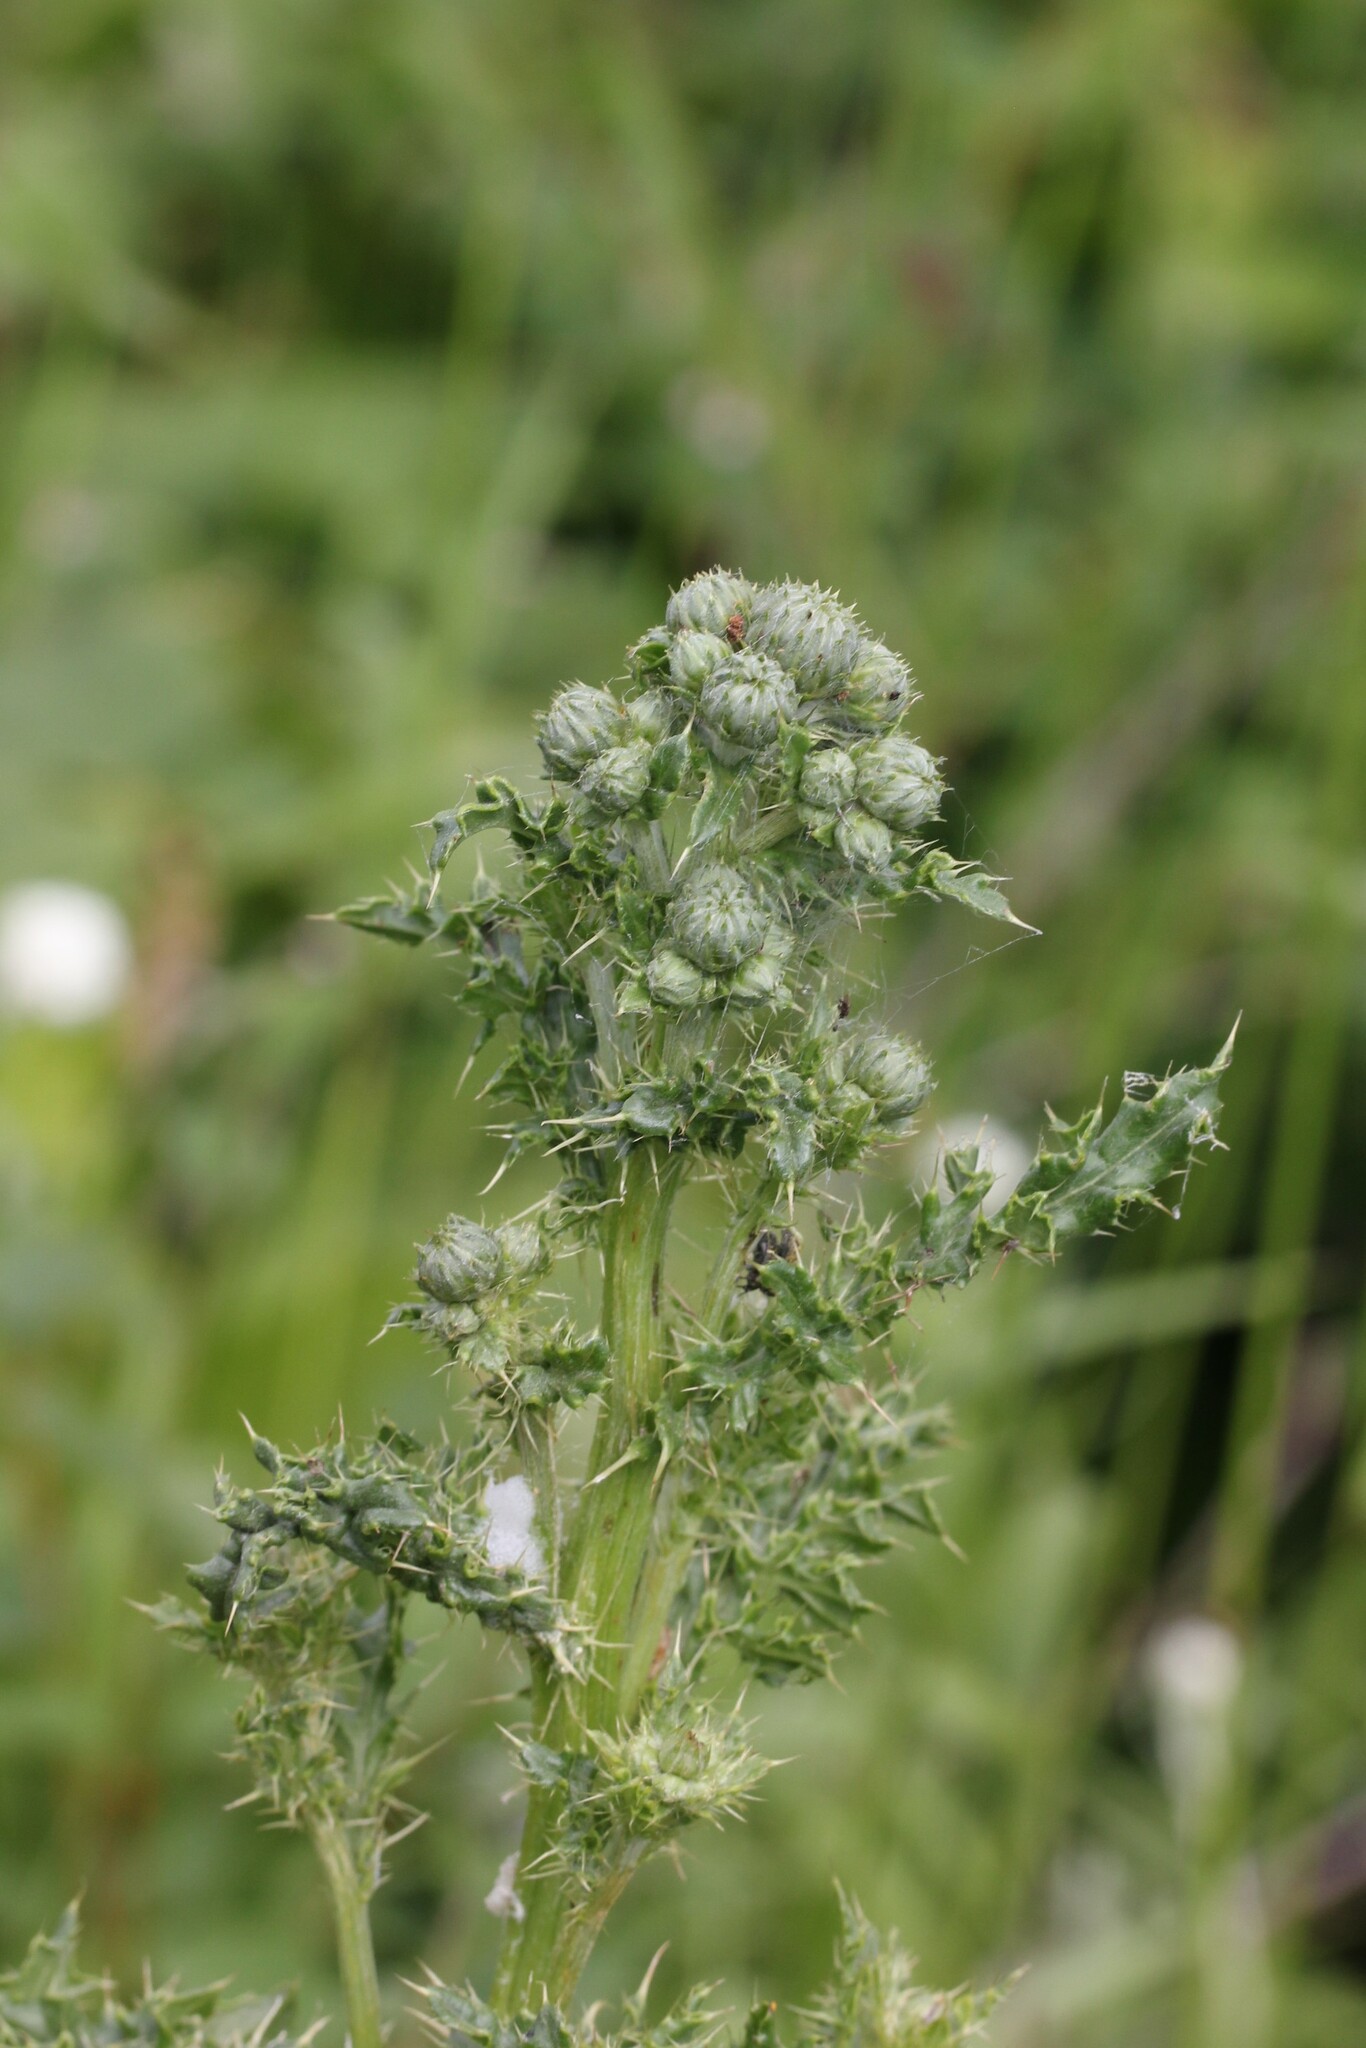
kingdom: Plantae
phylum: Tracheophyta
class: Magnoliopsida
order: Asterales
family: Asteraceae
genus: Cirsium
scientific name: Cirsium arvense
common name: Creeping thistle
